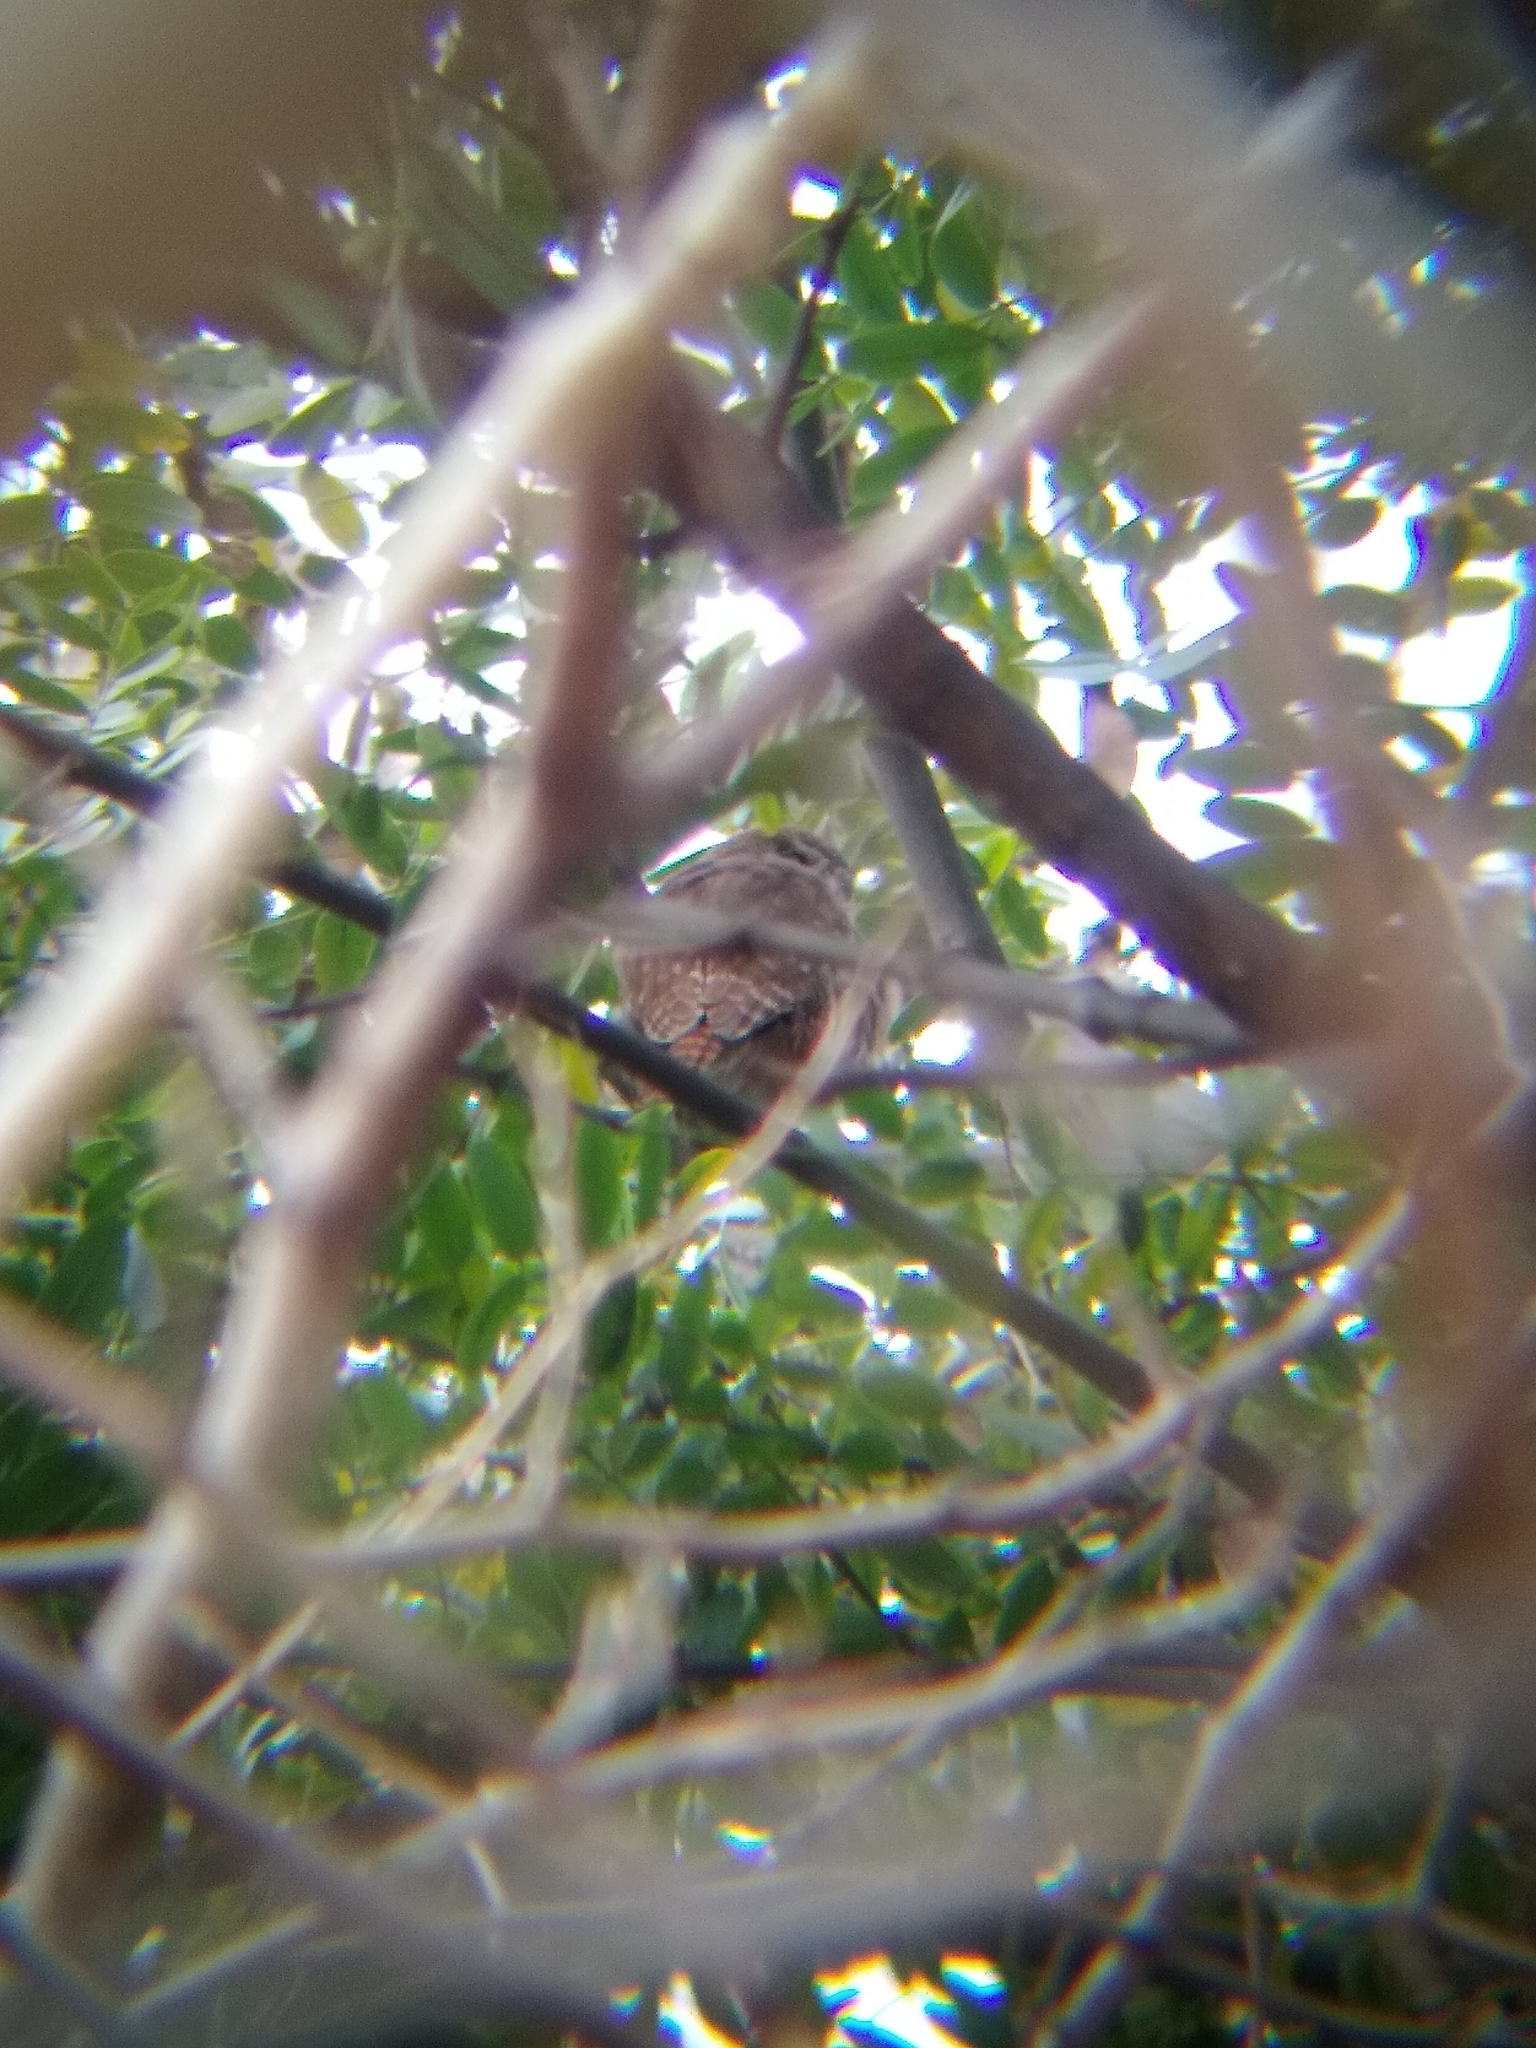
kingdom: Animalia
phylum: Chordata
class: Aves
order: Strigiformes
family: Strigidae
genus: Glaucidium
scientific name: Glaucidium brasilianum
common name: Ferruginous pygmy-owl
